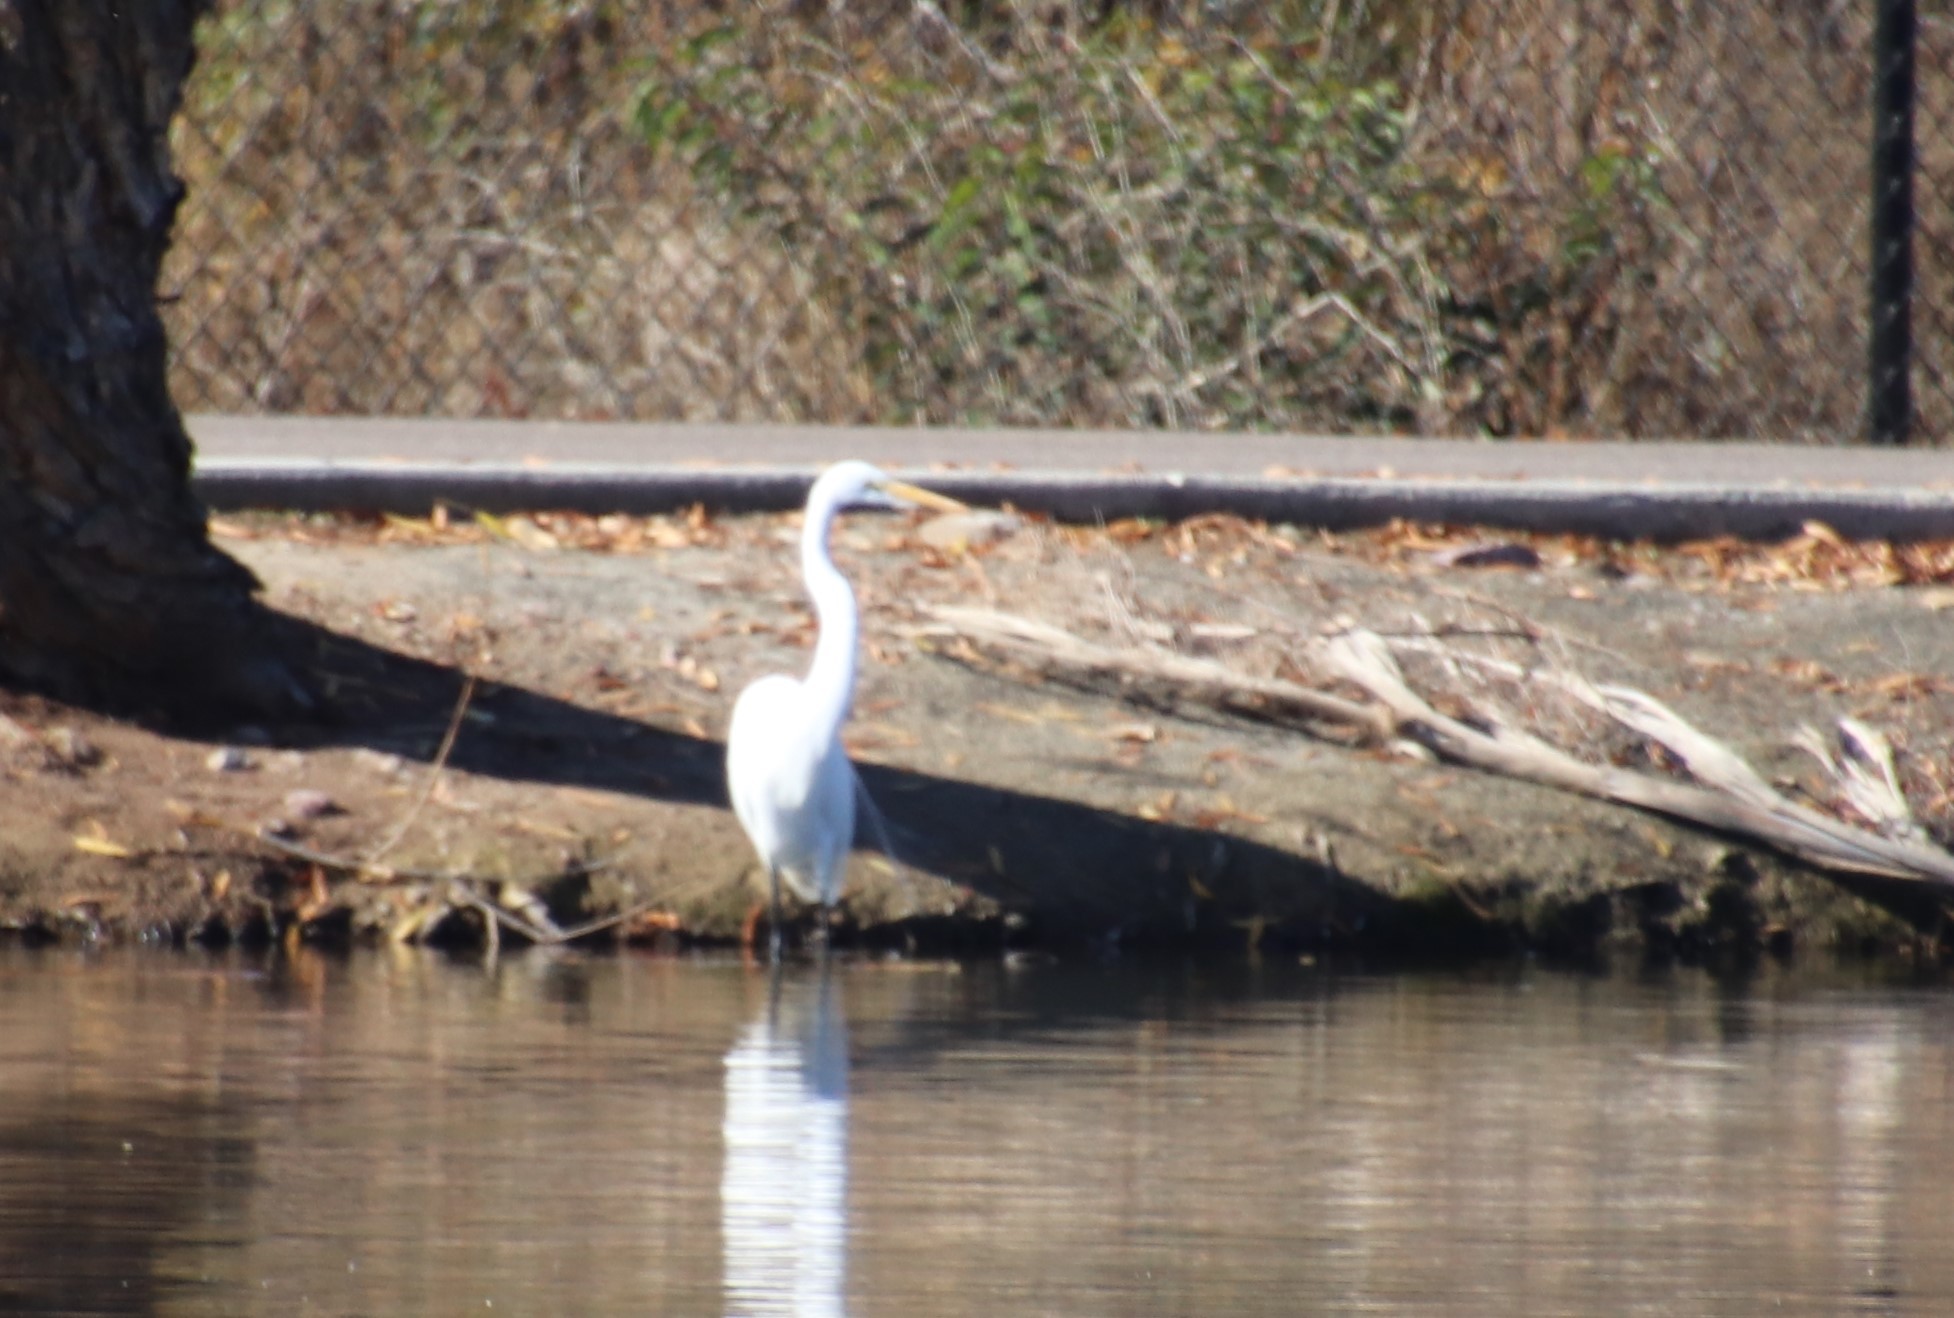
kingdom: Animalia
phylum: Chordata
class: Aves
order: Pelecaniformes
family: Ardeidae
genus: Ardea
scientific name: Ardea alba
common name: Great egret
